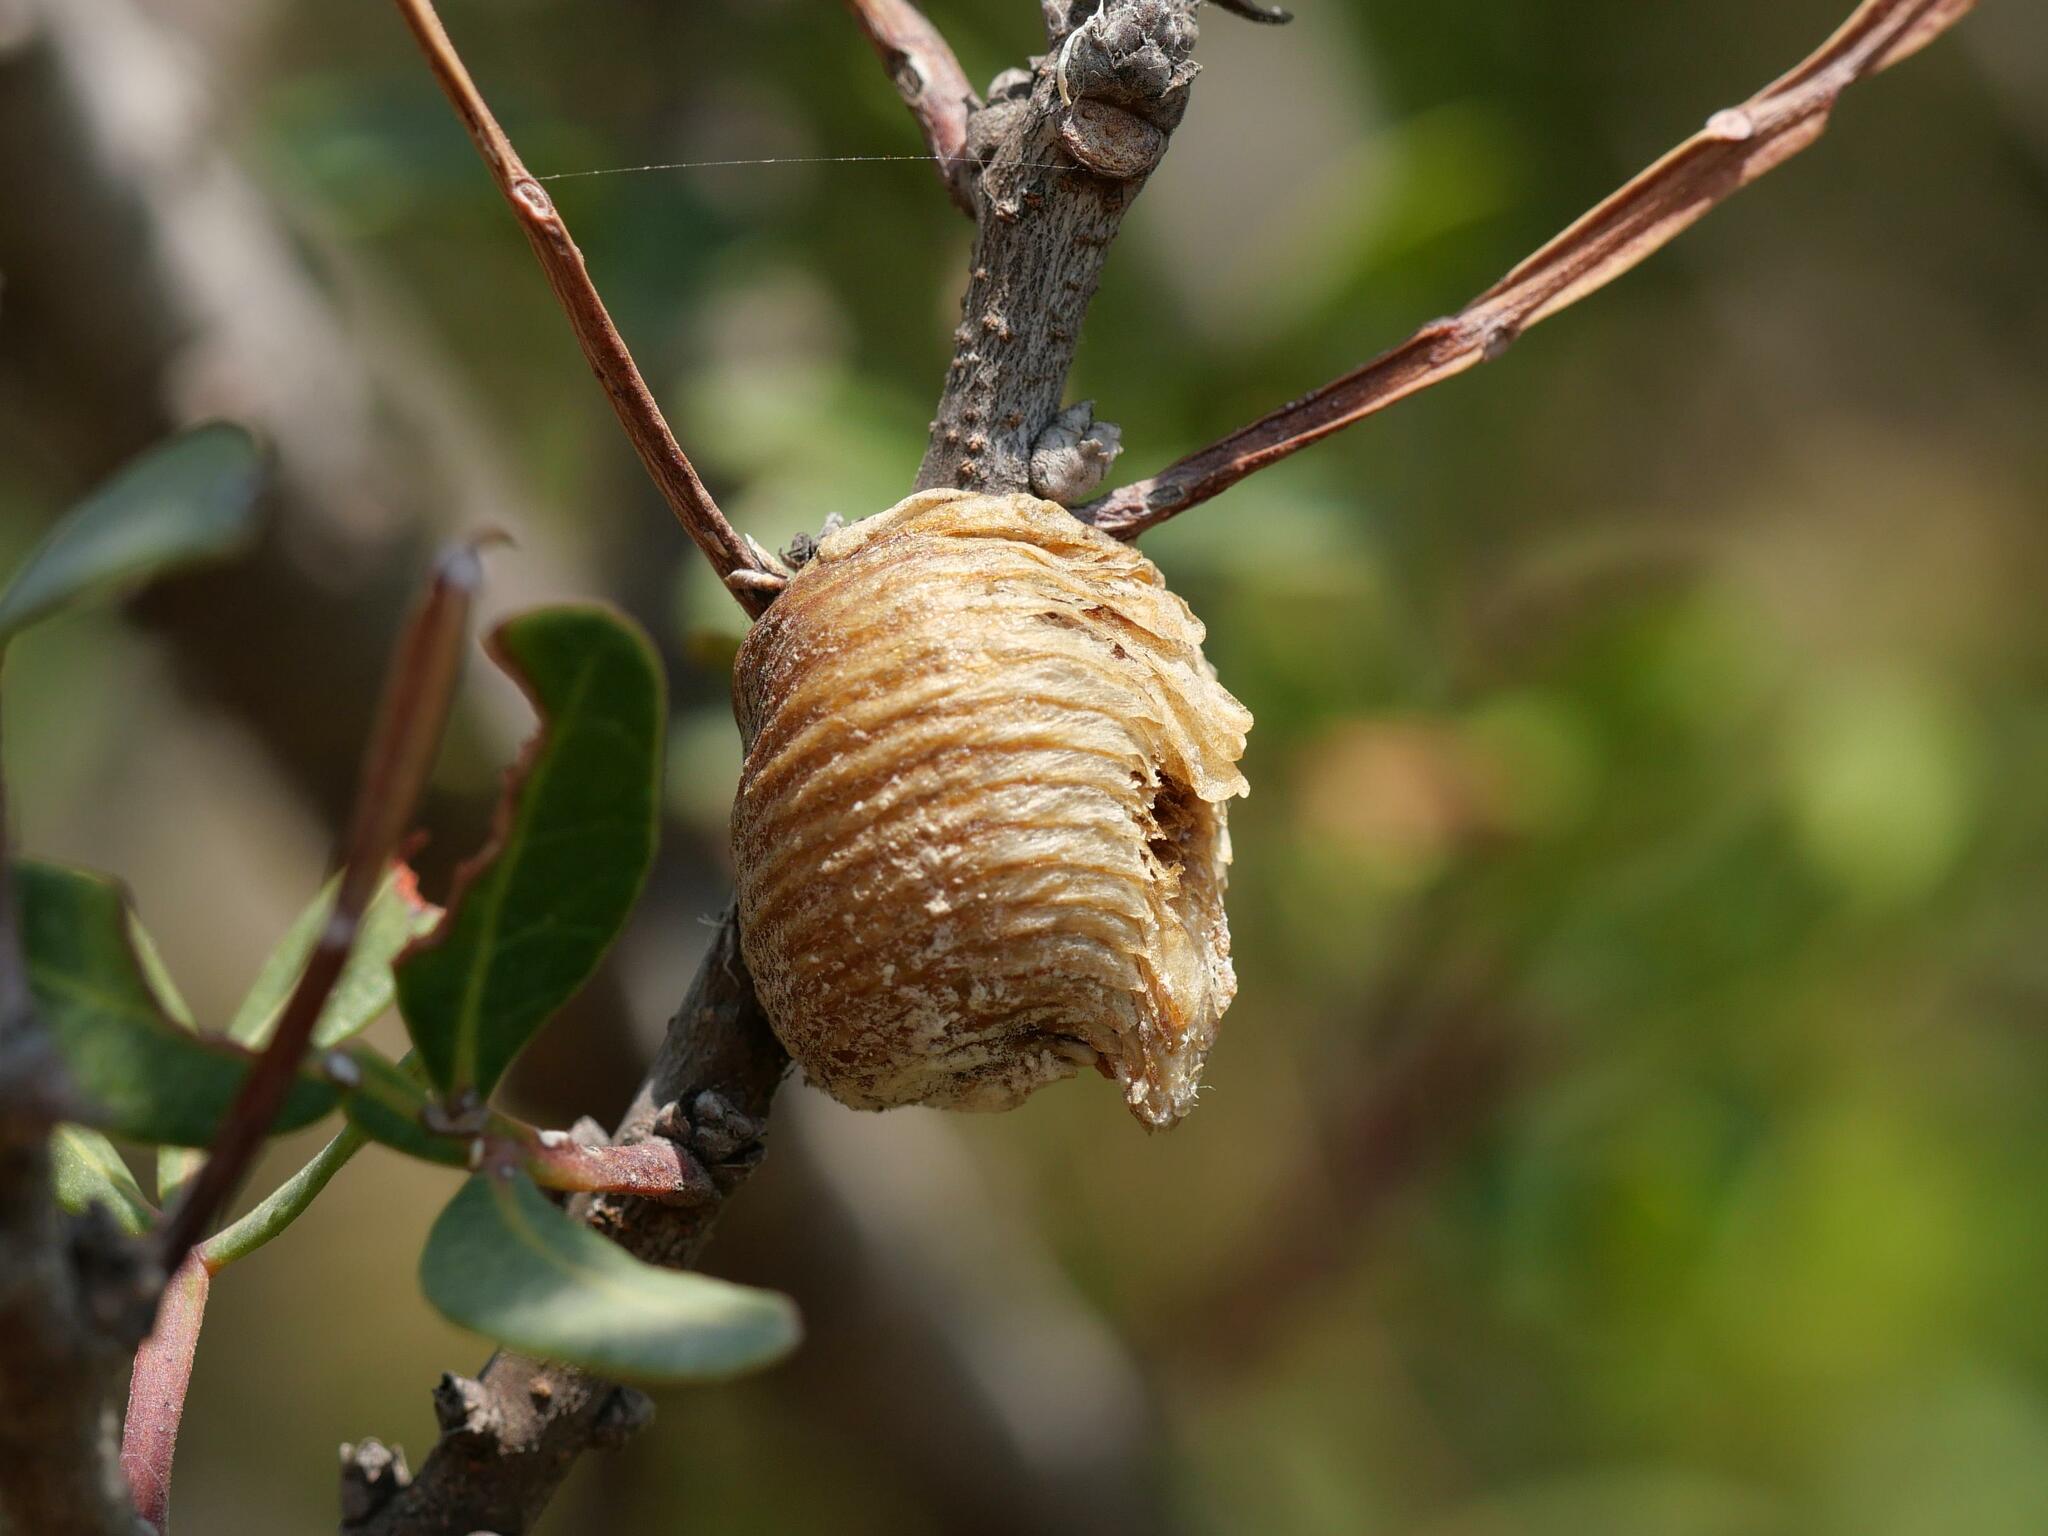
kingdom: Animalia
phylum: Arthropoda
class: Insecta
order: Mantodea
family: Mantidae
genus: Hierodula
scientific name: Hierodula transcaucasica
